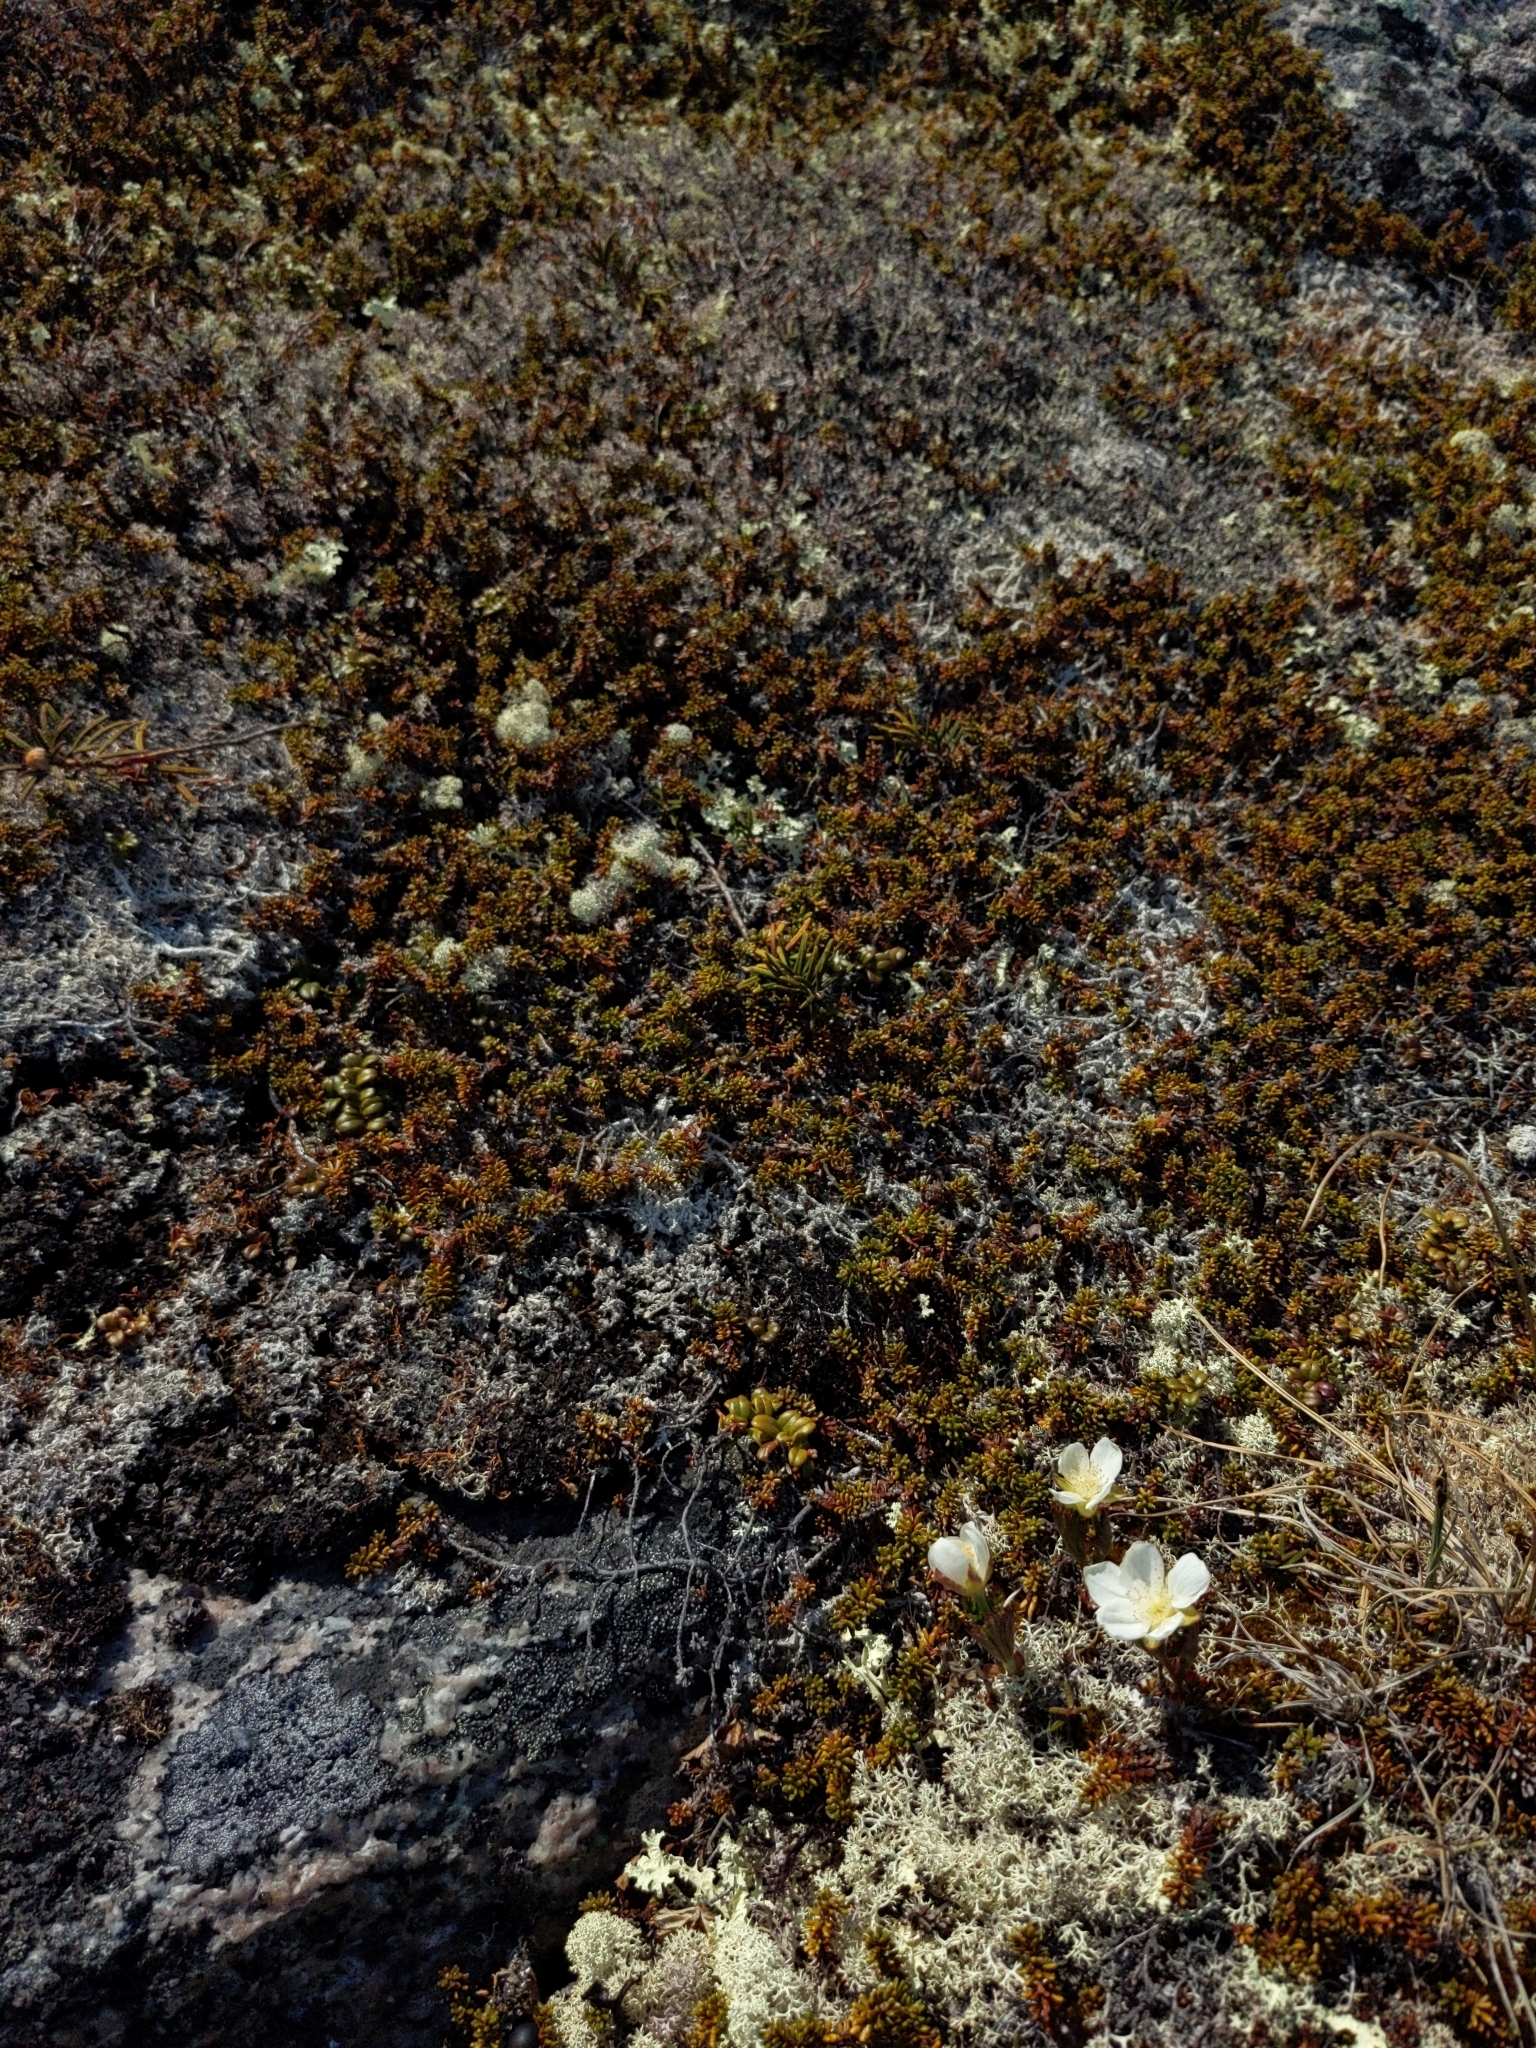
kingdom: Plantae
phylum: Tracheophyta
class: Magnoliopsida
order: Rosales
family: Rosaceae
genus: Rubus
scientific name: Rubus chamaemorus
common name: Cloudberry
